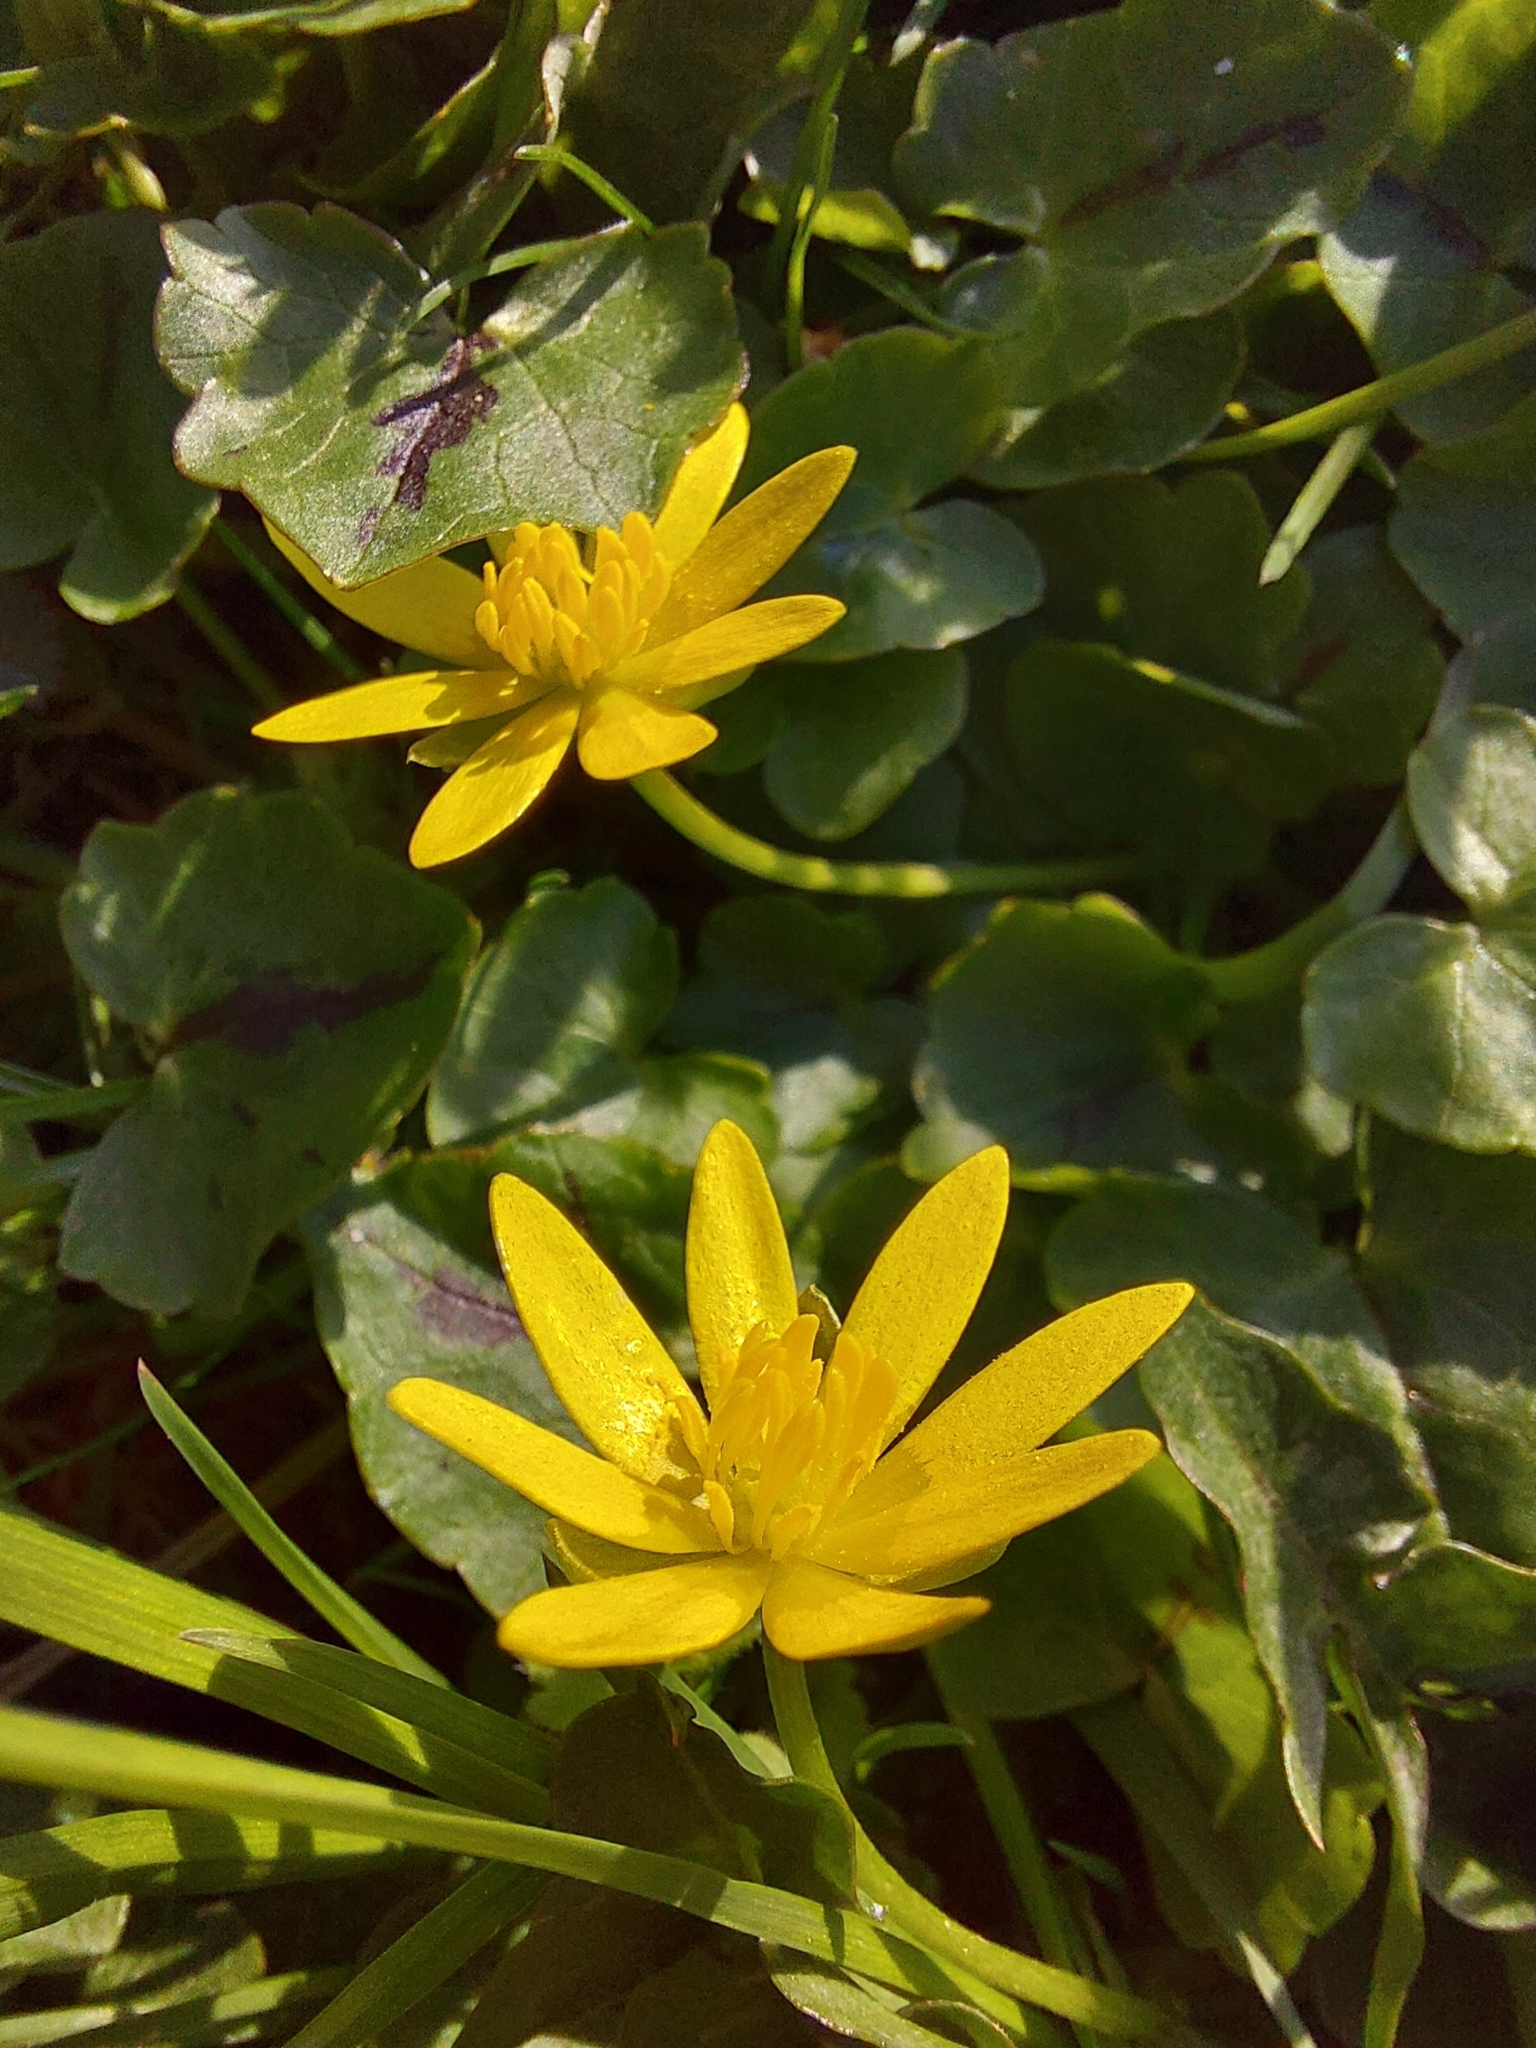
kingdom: Plantae
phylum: Tracheophyta
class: Magnoliopsida
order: Ranunculales
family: Ranunculaceae
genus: Ficaria
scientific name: Ficaria verna
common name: Lesser celandine
